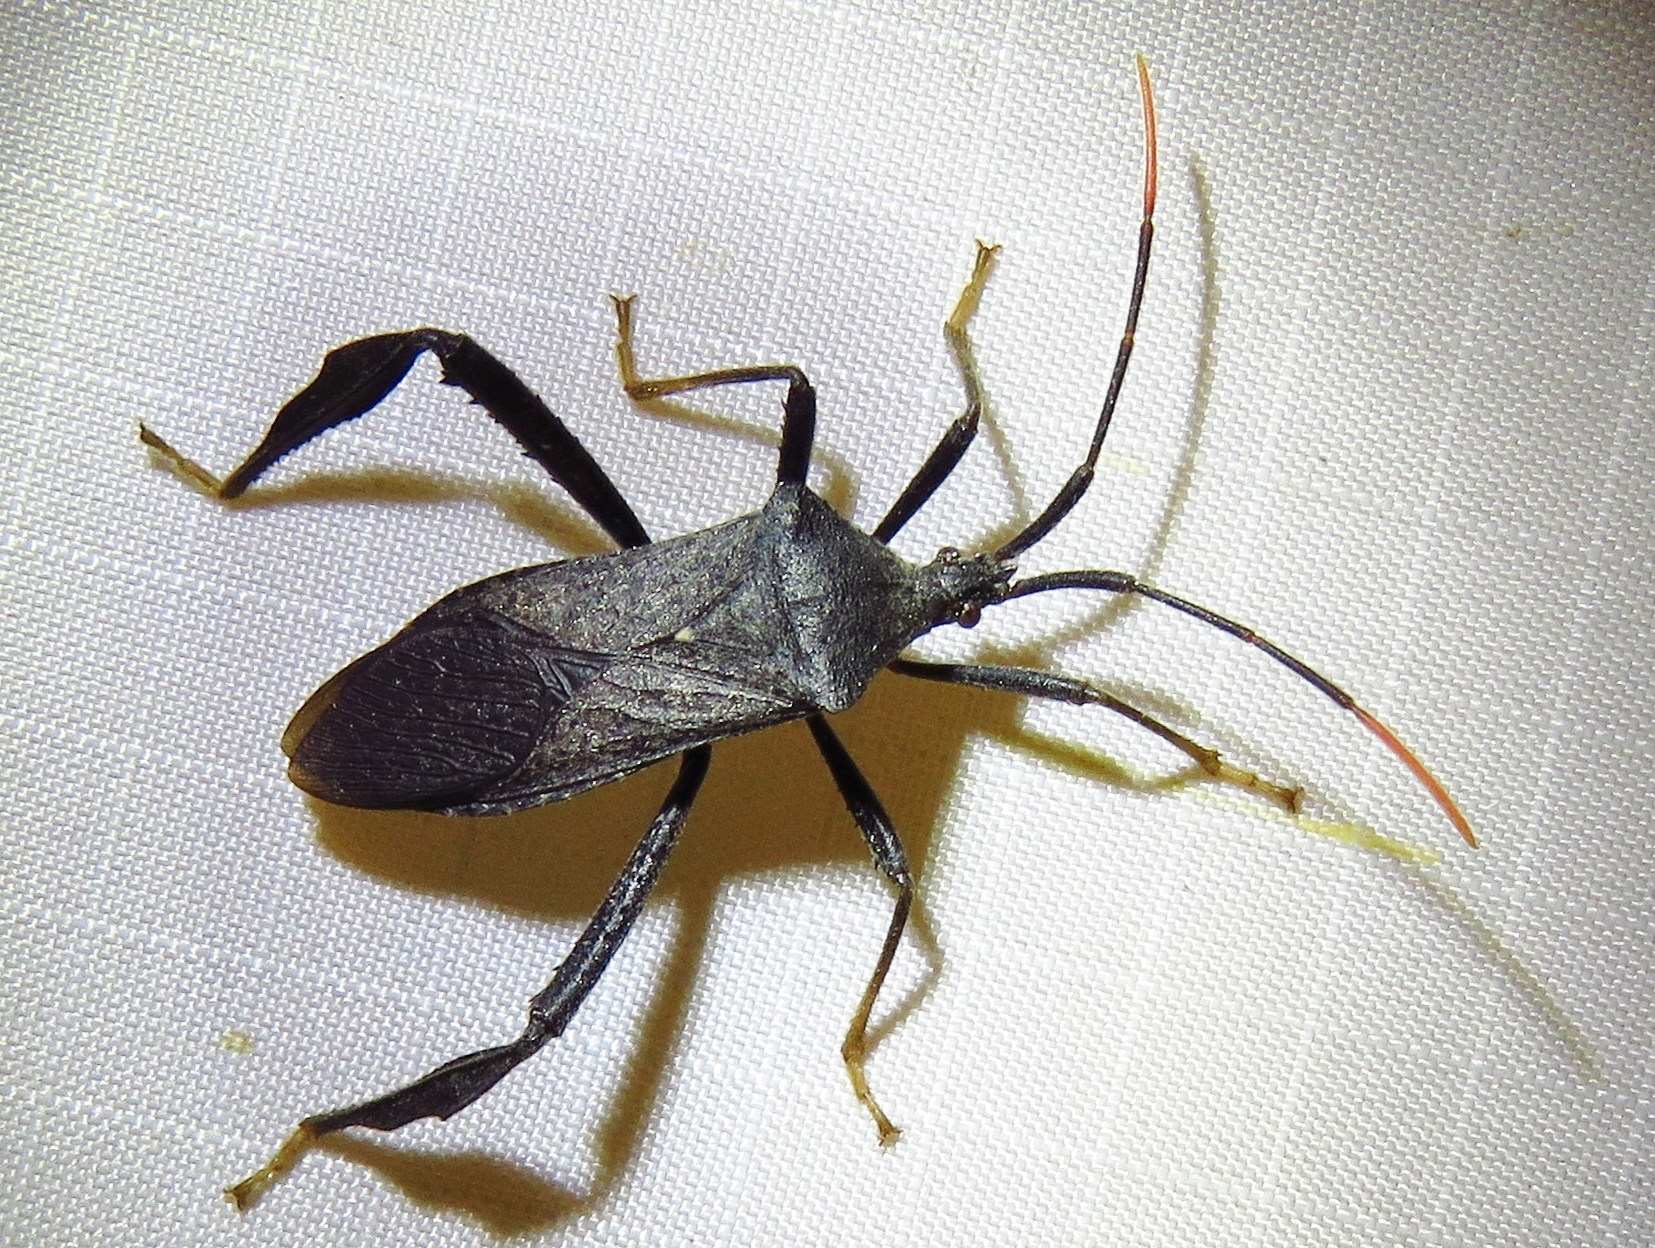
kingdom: Animalia
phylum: Arthropoda
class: Insecta
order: Hemiptera
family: Coreidae
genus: Acanthocephala
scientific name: Acanthocephala terminalis
